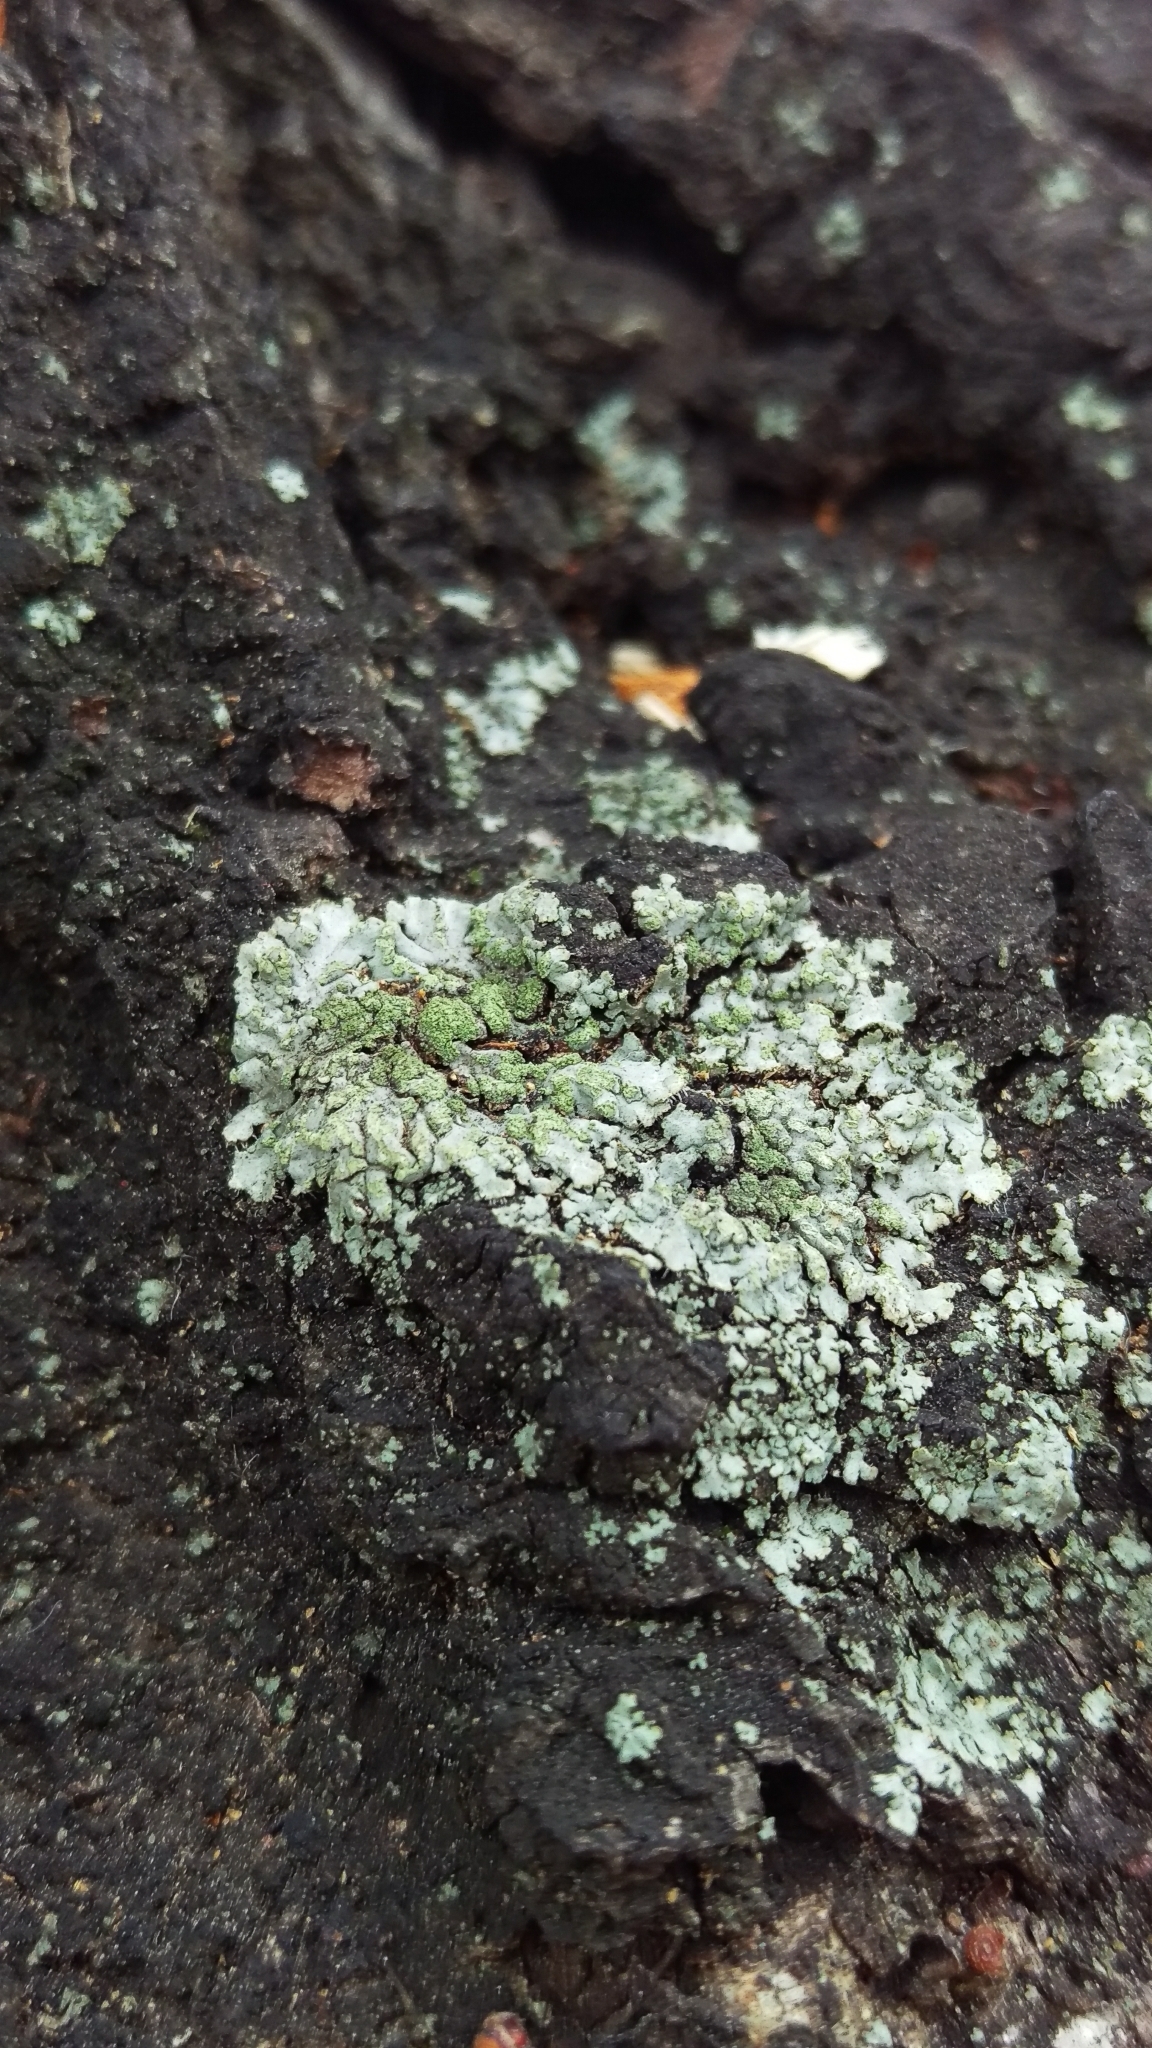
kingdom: Fungi
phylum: Ascomycota
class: Lecanoromycetes
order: Caliciales
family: Physciaceae
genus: Phaeophyscia
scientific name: Phaeophyscia orbicularis
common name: Mealy shadow lichen
